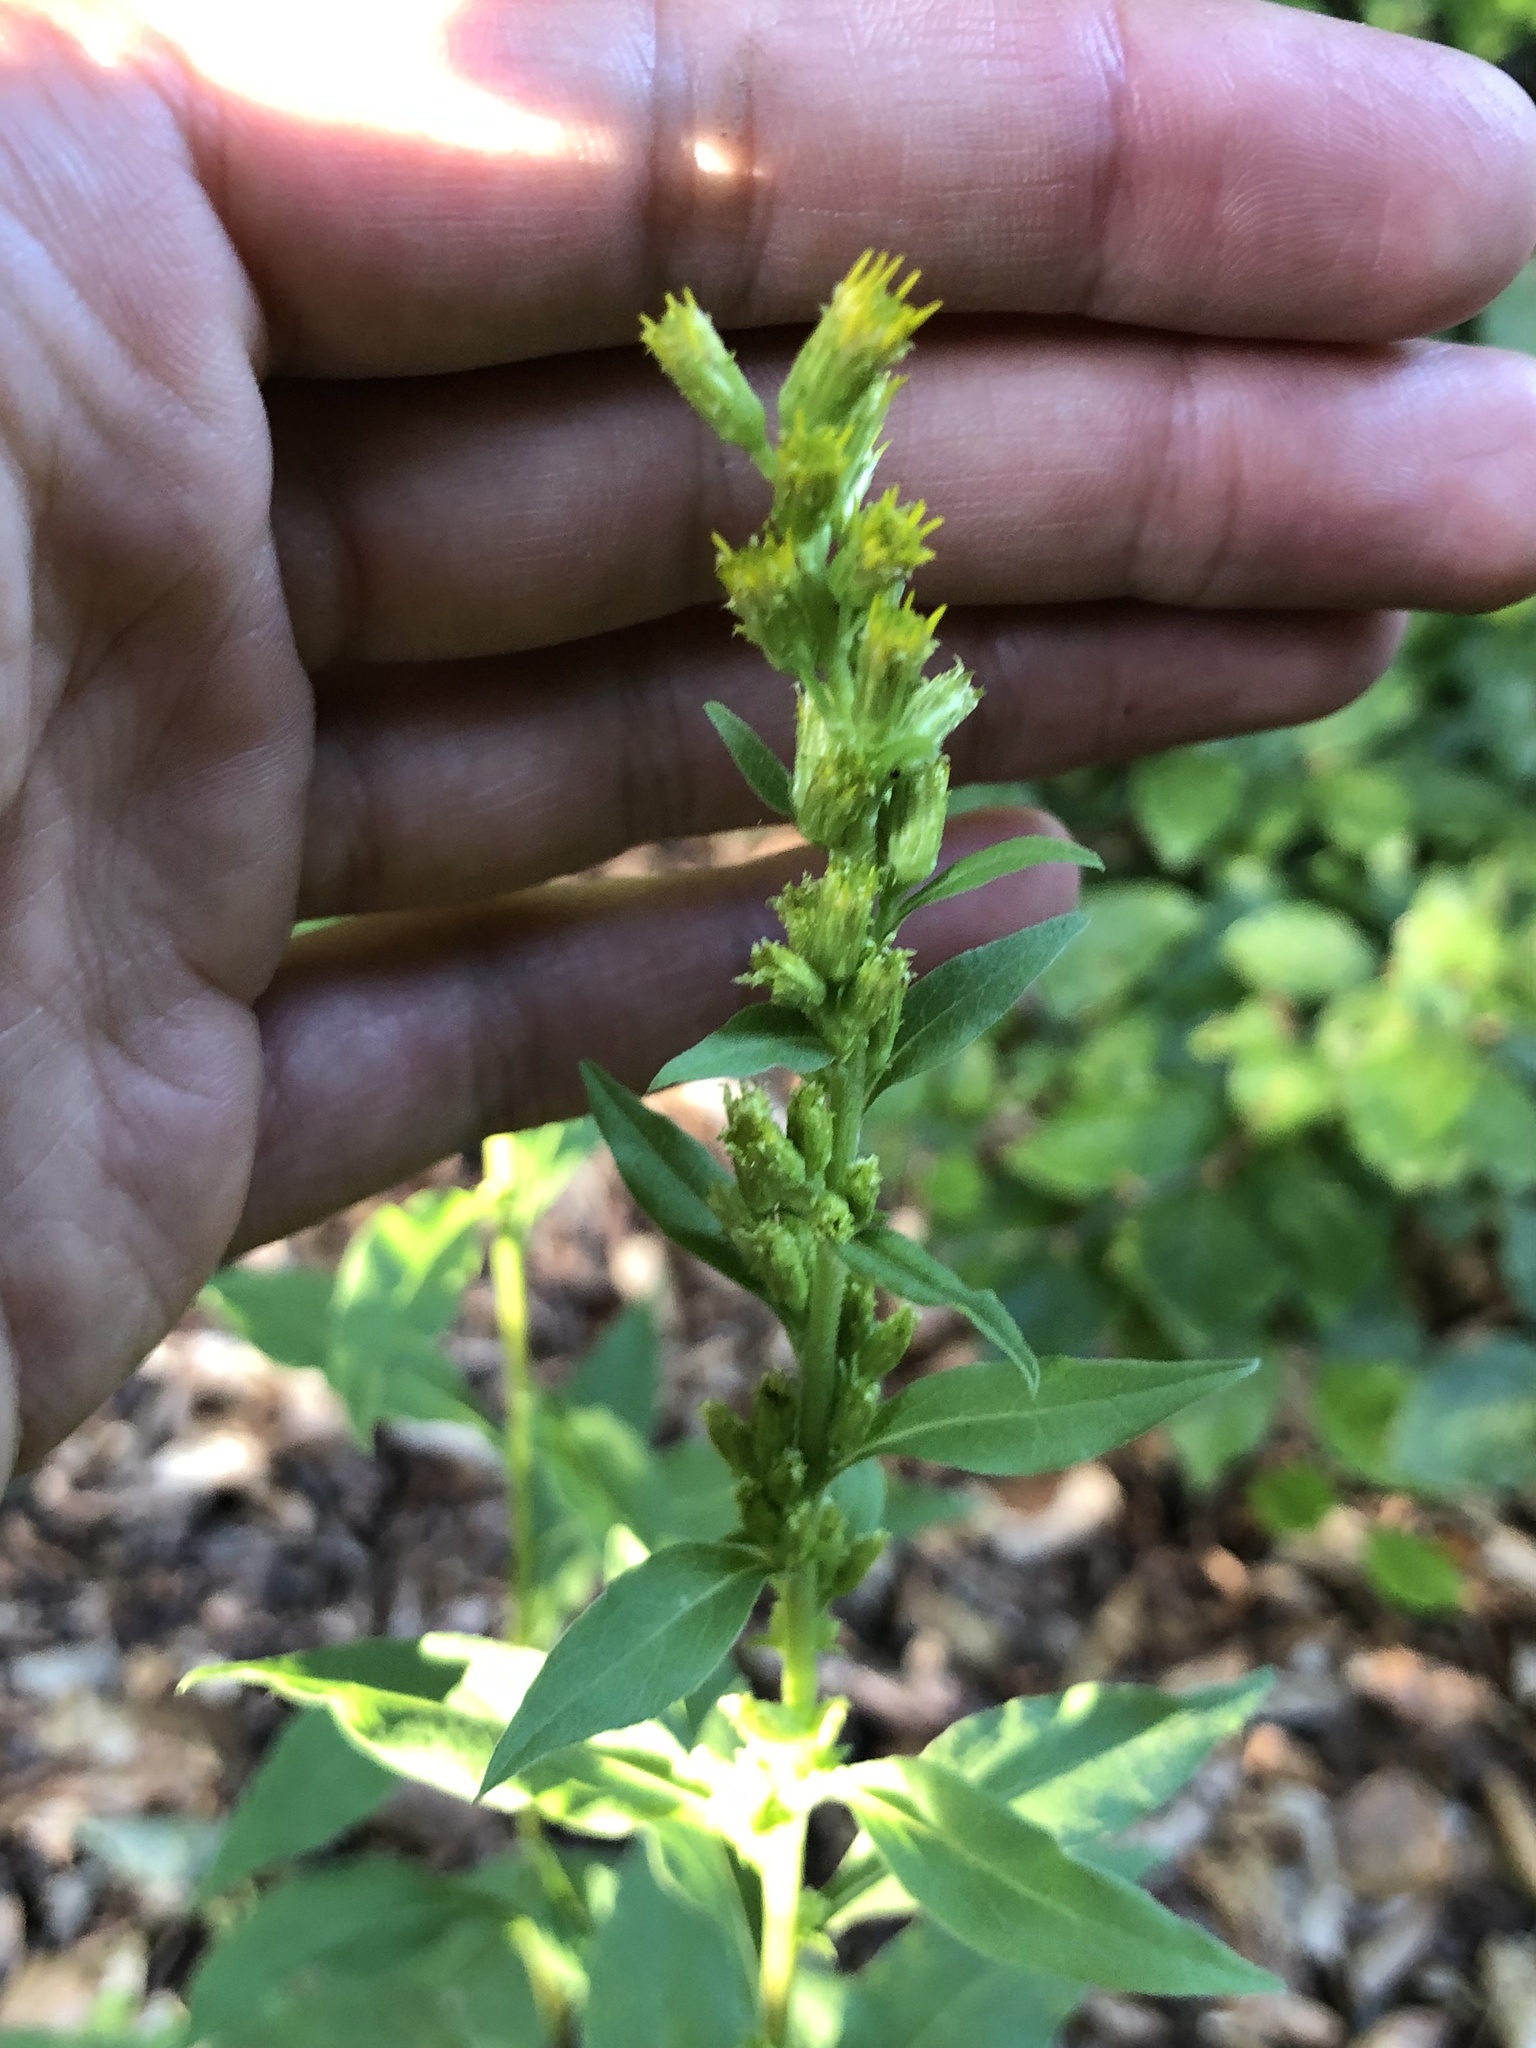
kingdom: Plantae
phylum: Tracheophyta
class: Magnoliopsida
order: Asterales
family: Asteraceae
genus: Solidago
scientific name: Solidago virgaurea
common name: Goldenrod
